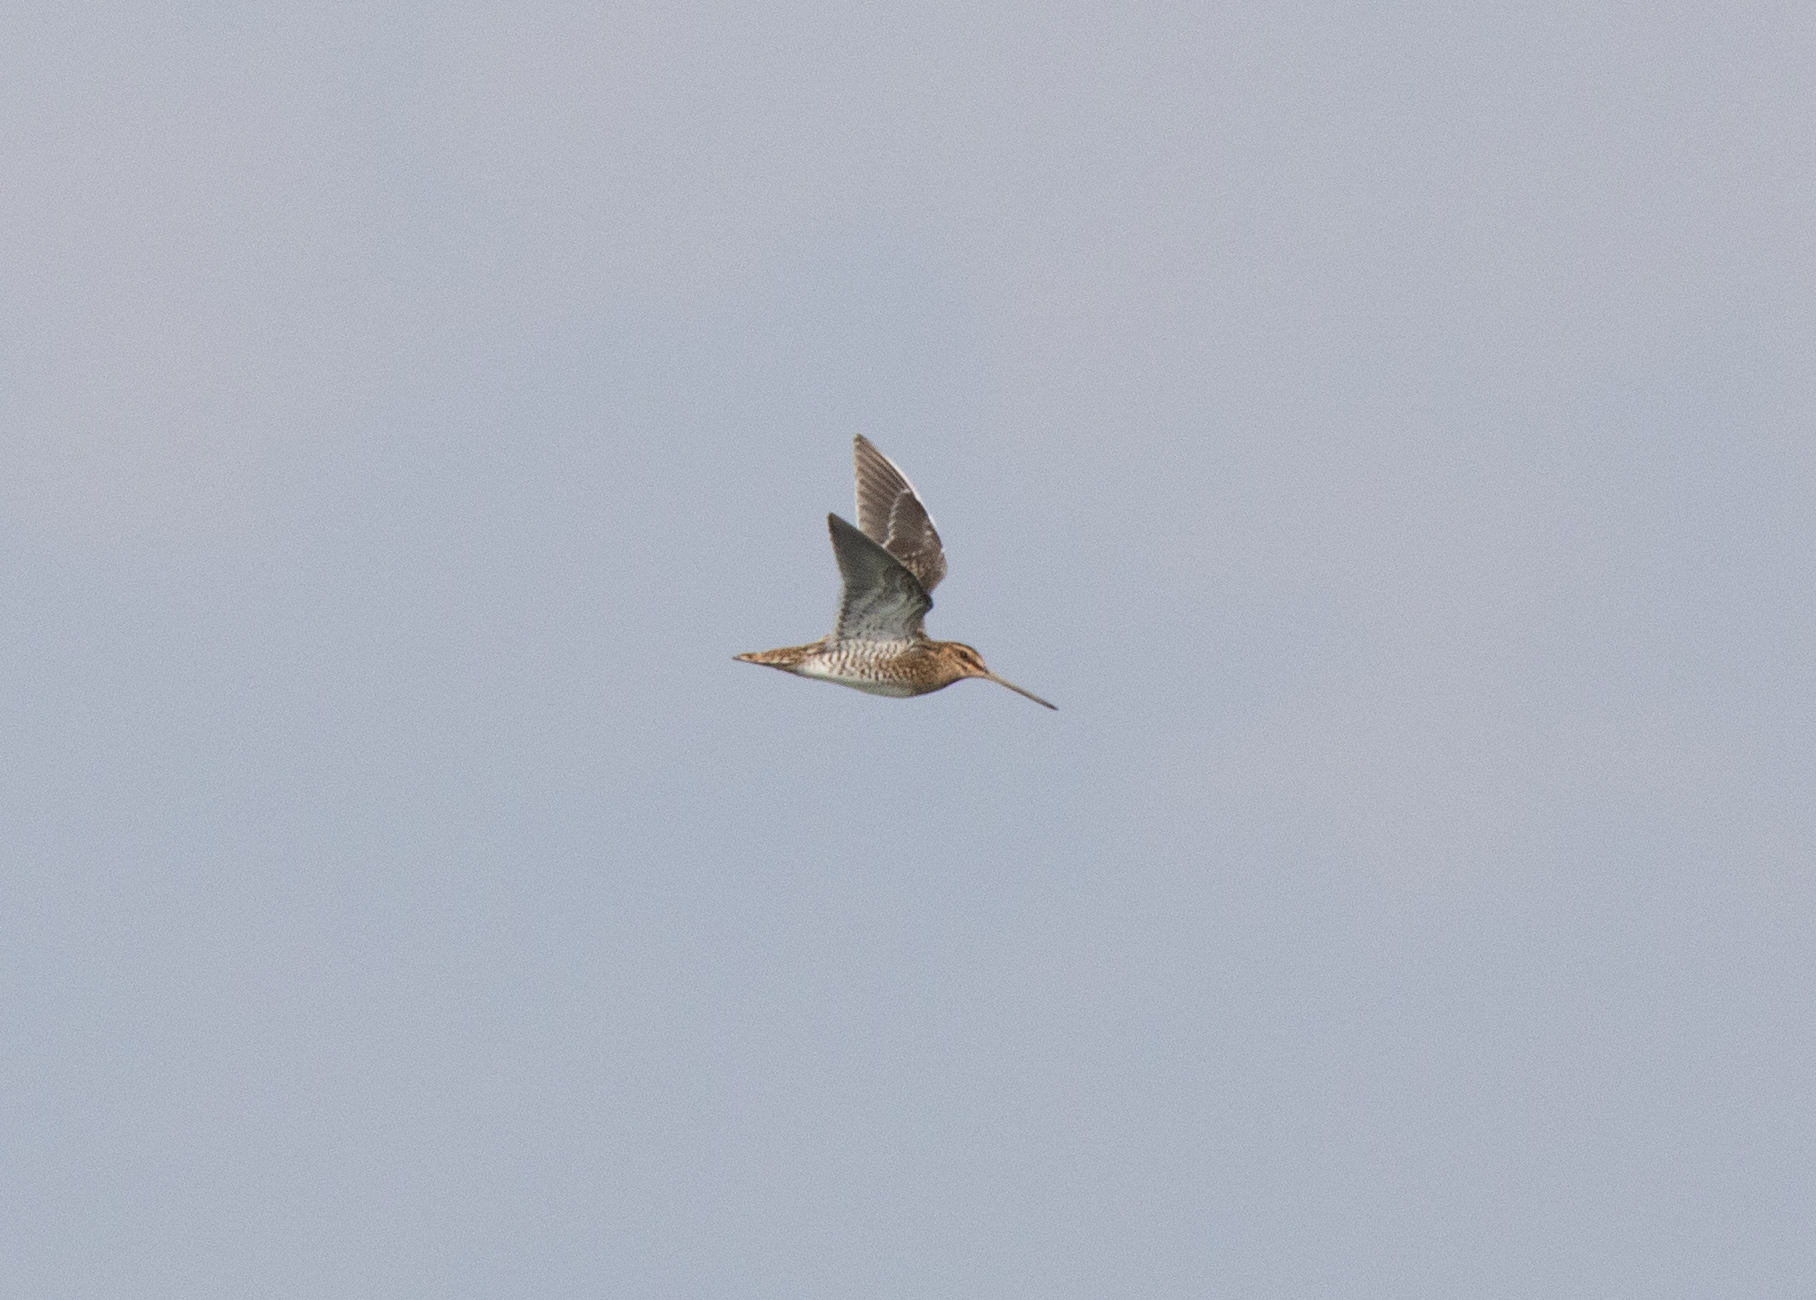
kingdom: Animalia
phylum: Chordata
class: Aves
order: Charadriiformes
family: Scolopacidae
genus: Gallinago
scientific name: Gallinago gallinago
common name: Common snipe
